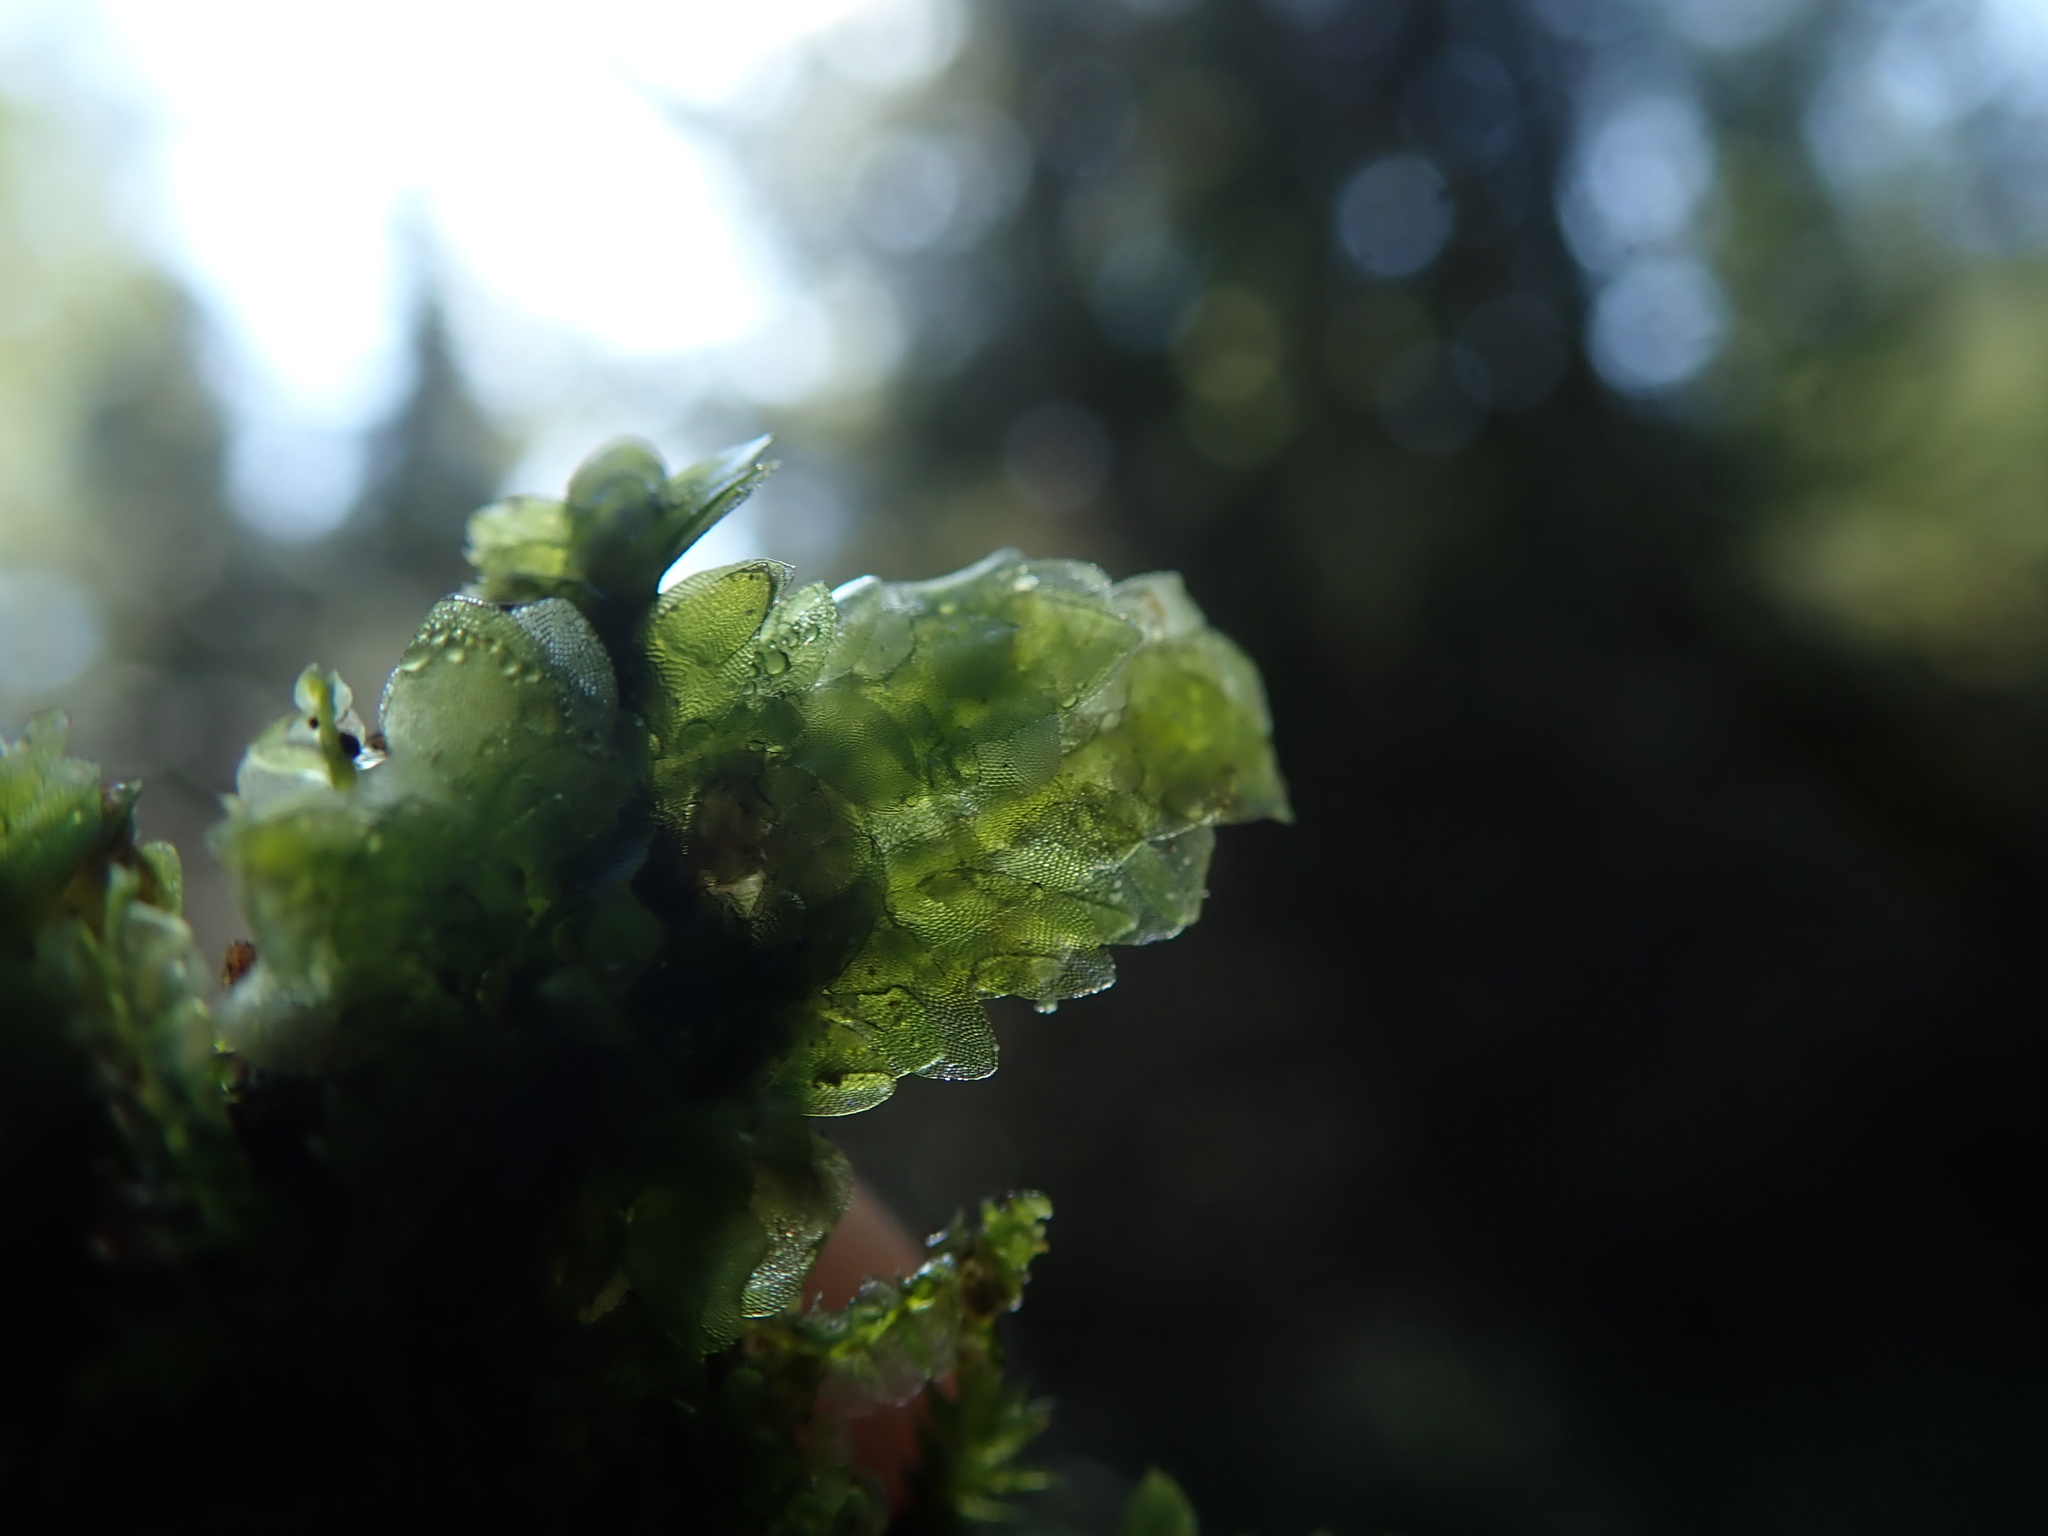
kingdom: Plantae
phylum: Bryophyta
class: Bryopsida
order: Hookeriales
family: Hookeriaceae
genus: Hookeria
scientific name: Hookeria lucens
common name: Shining hookeria
